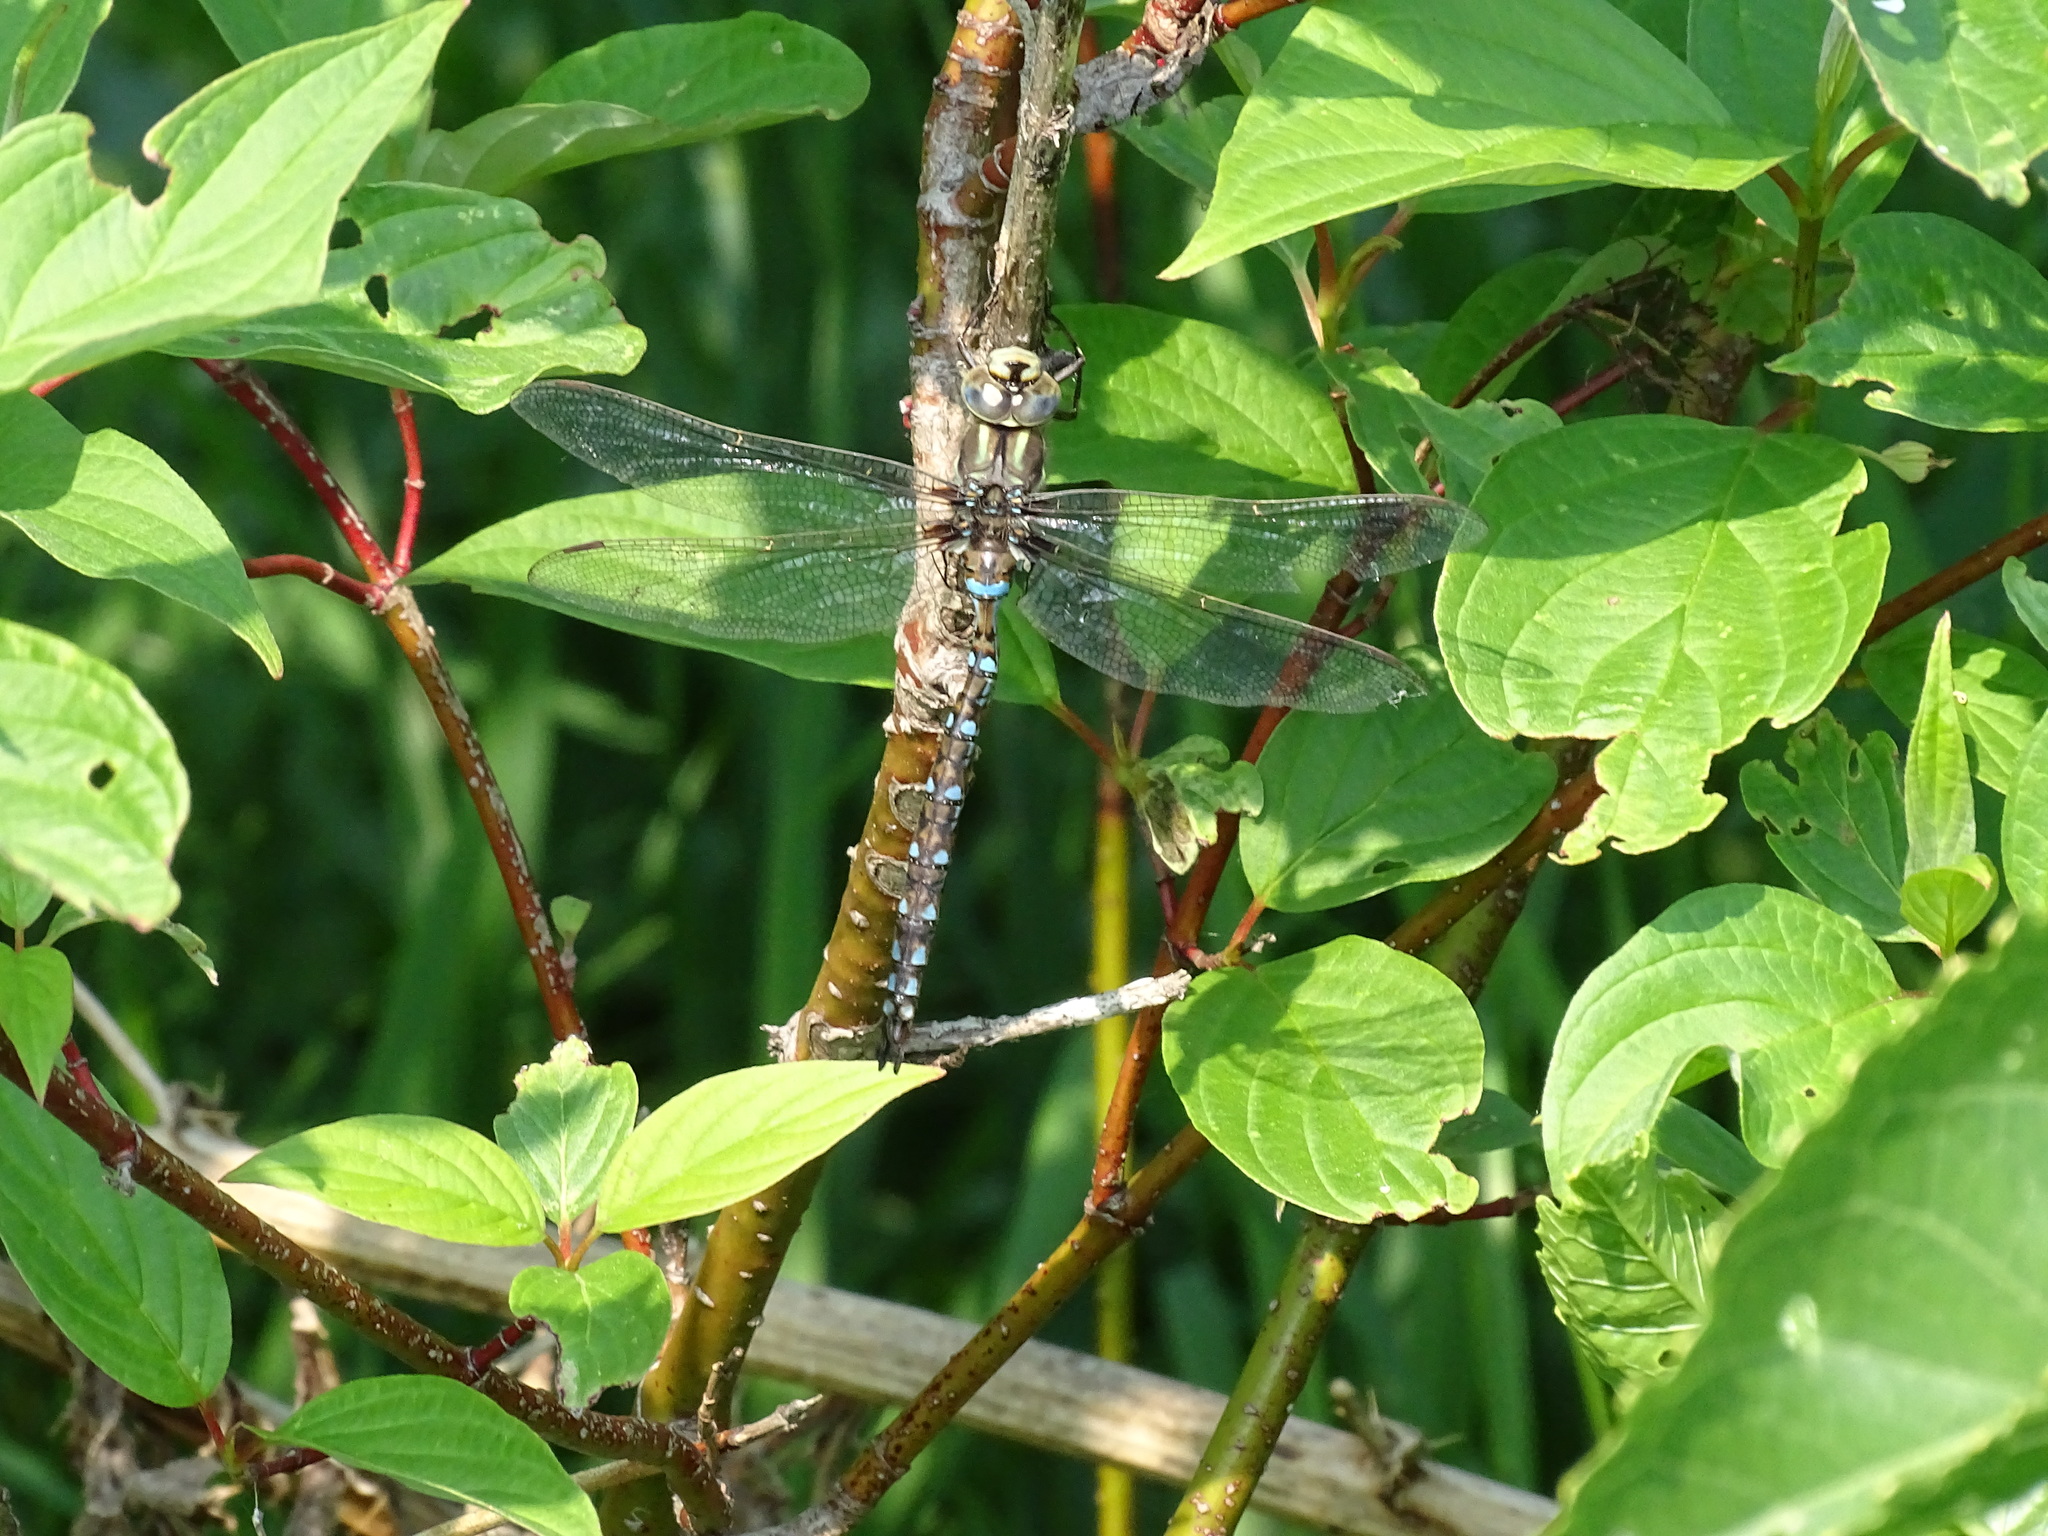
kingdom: Animalia
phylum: Arthropoda
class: Insecta
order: Odonata
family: Aeshnidae
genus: Basiaeschna
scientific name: Basiaeschna janata
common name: Springtime darner
